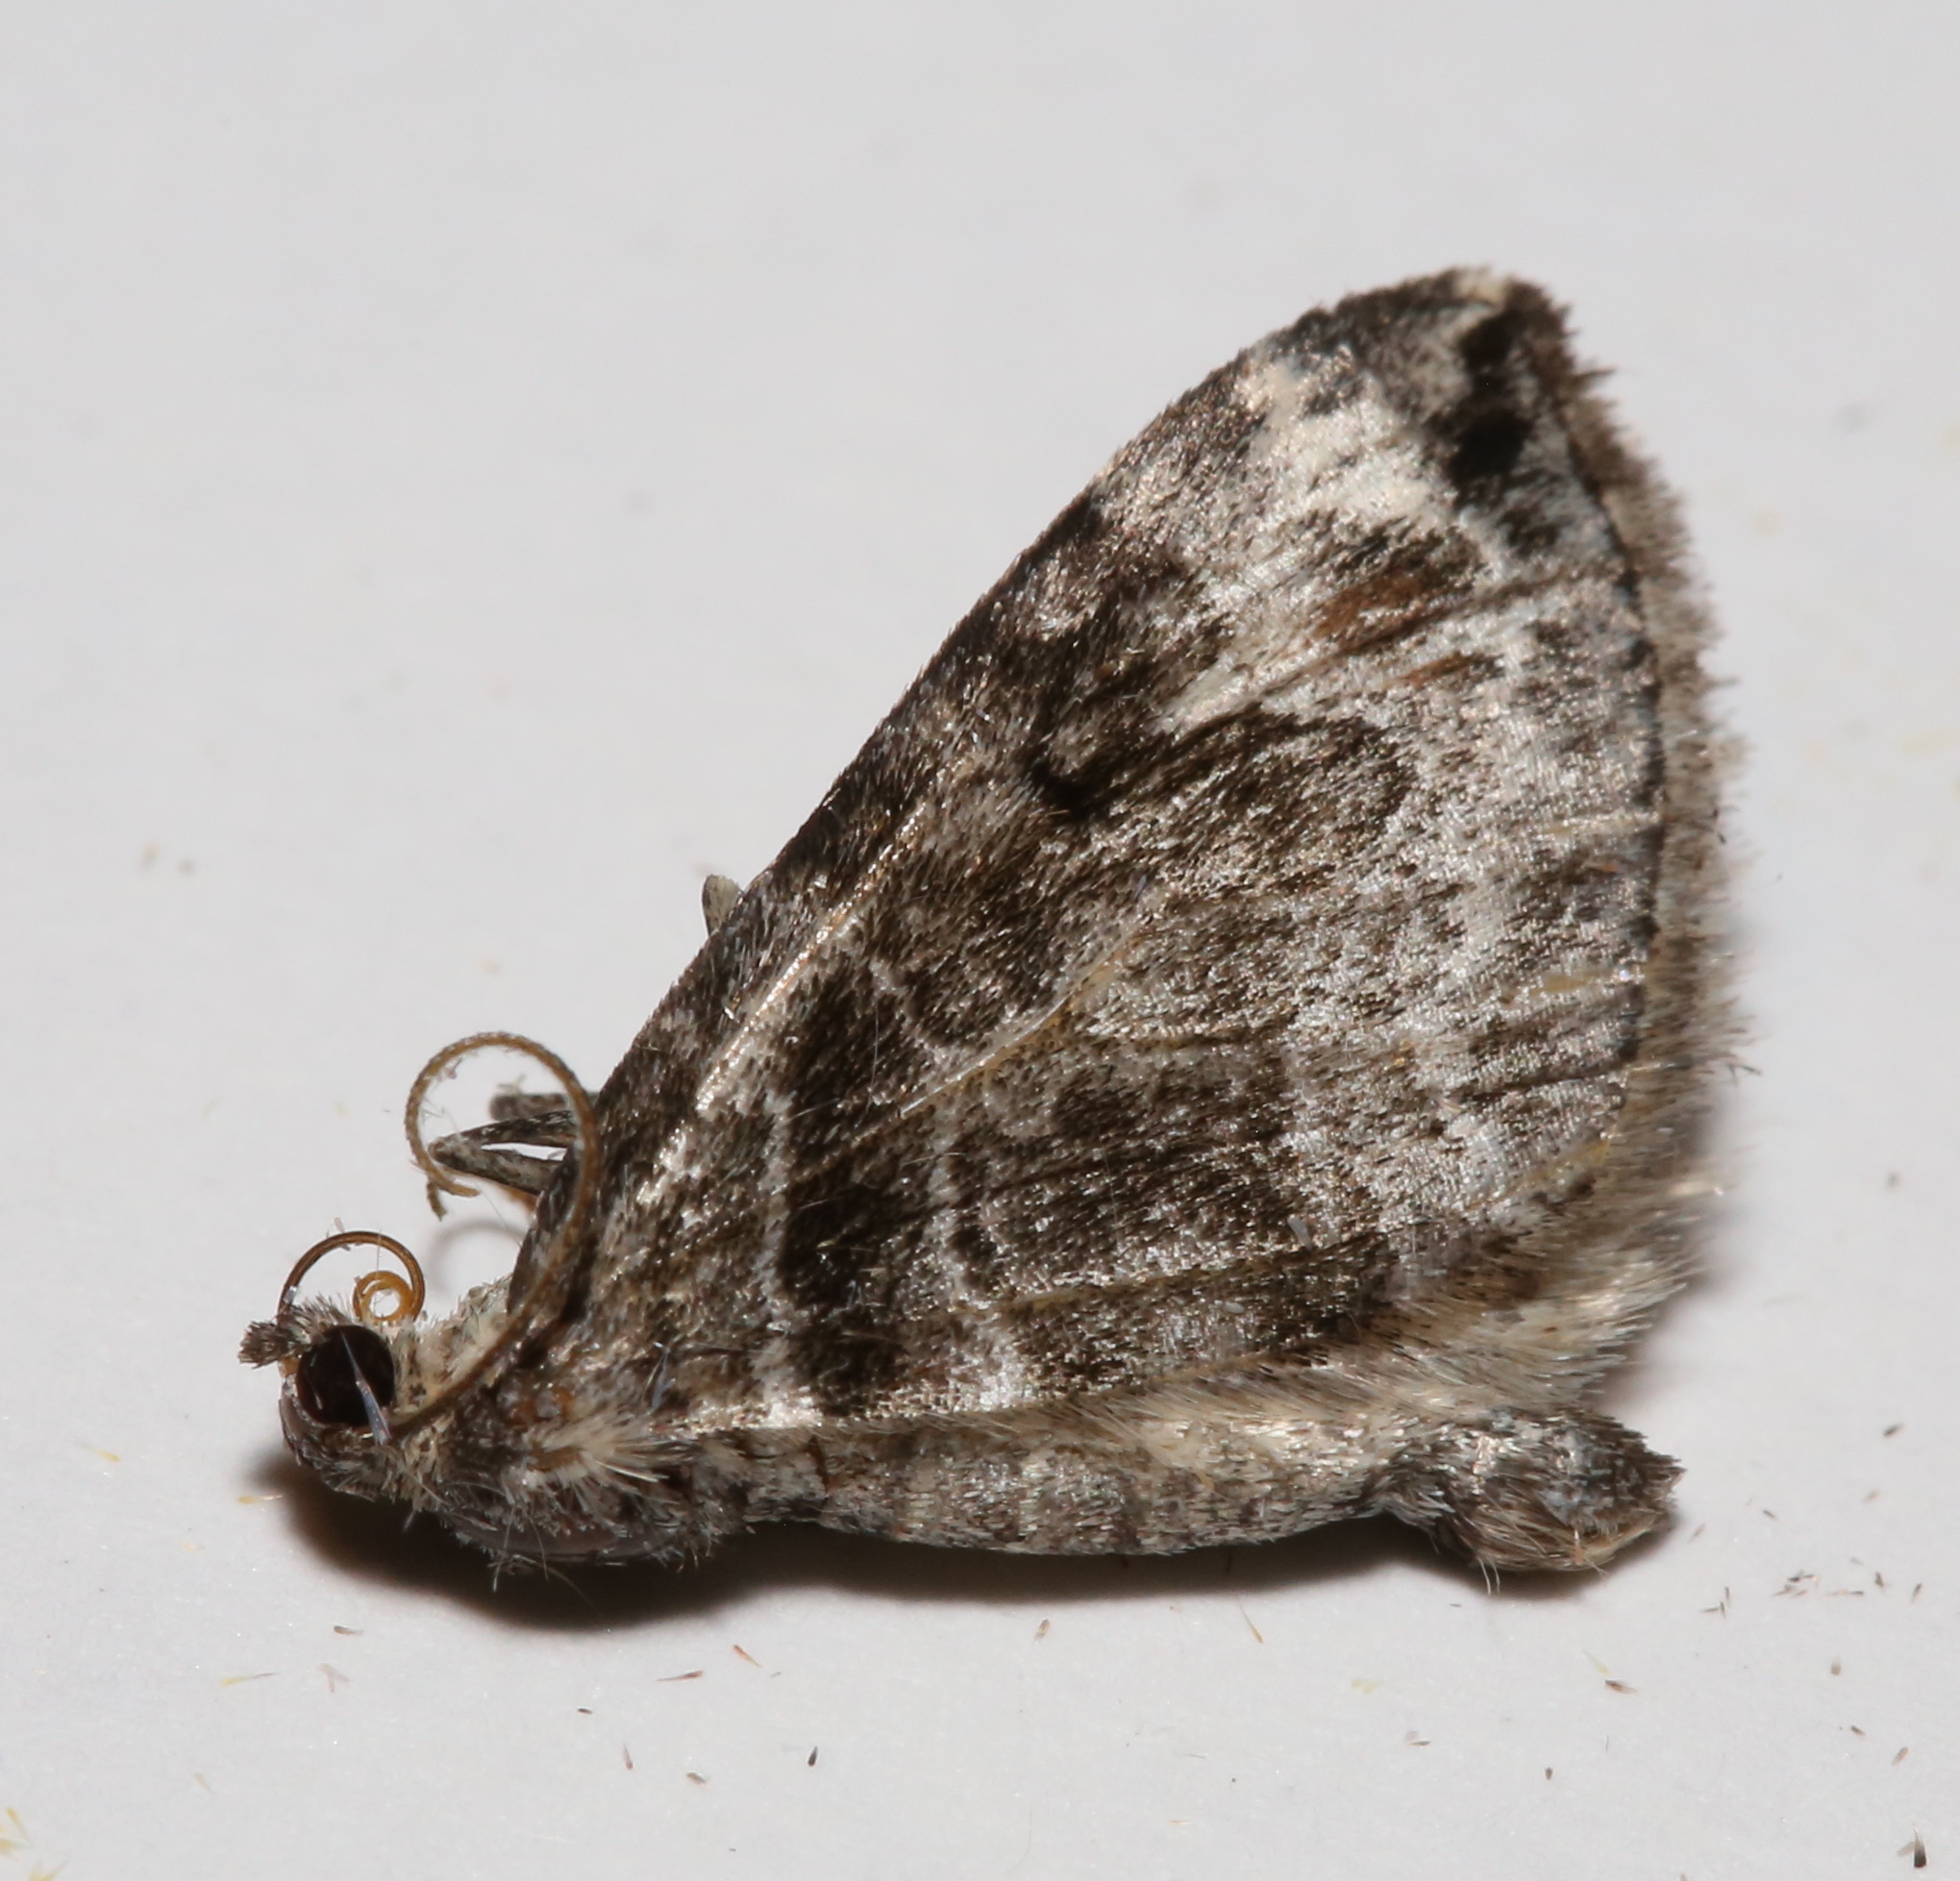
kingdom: Animalia
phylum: Arthropoda
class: Insecta
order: Lepidoptera
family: Geometridae
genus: Dysstroma
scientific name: Dysstroma hersiliata
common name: Orange-barred carpet
